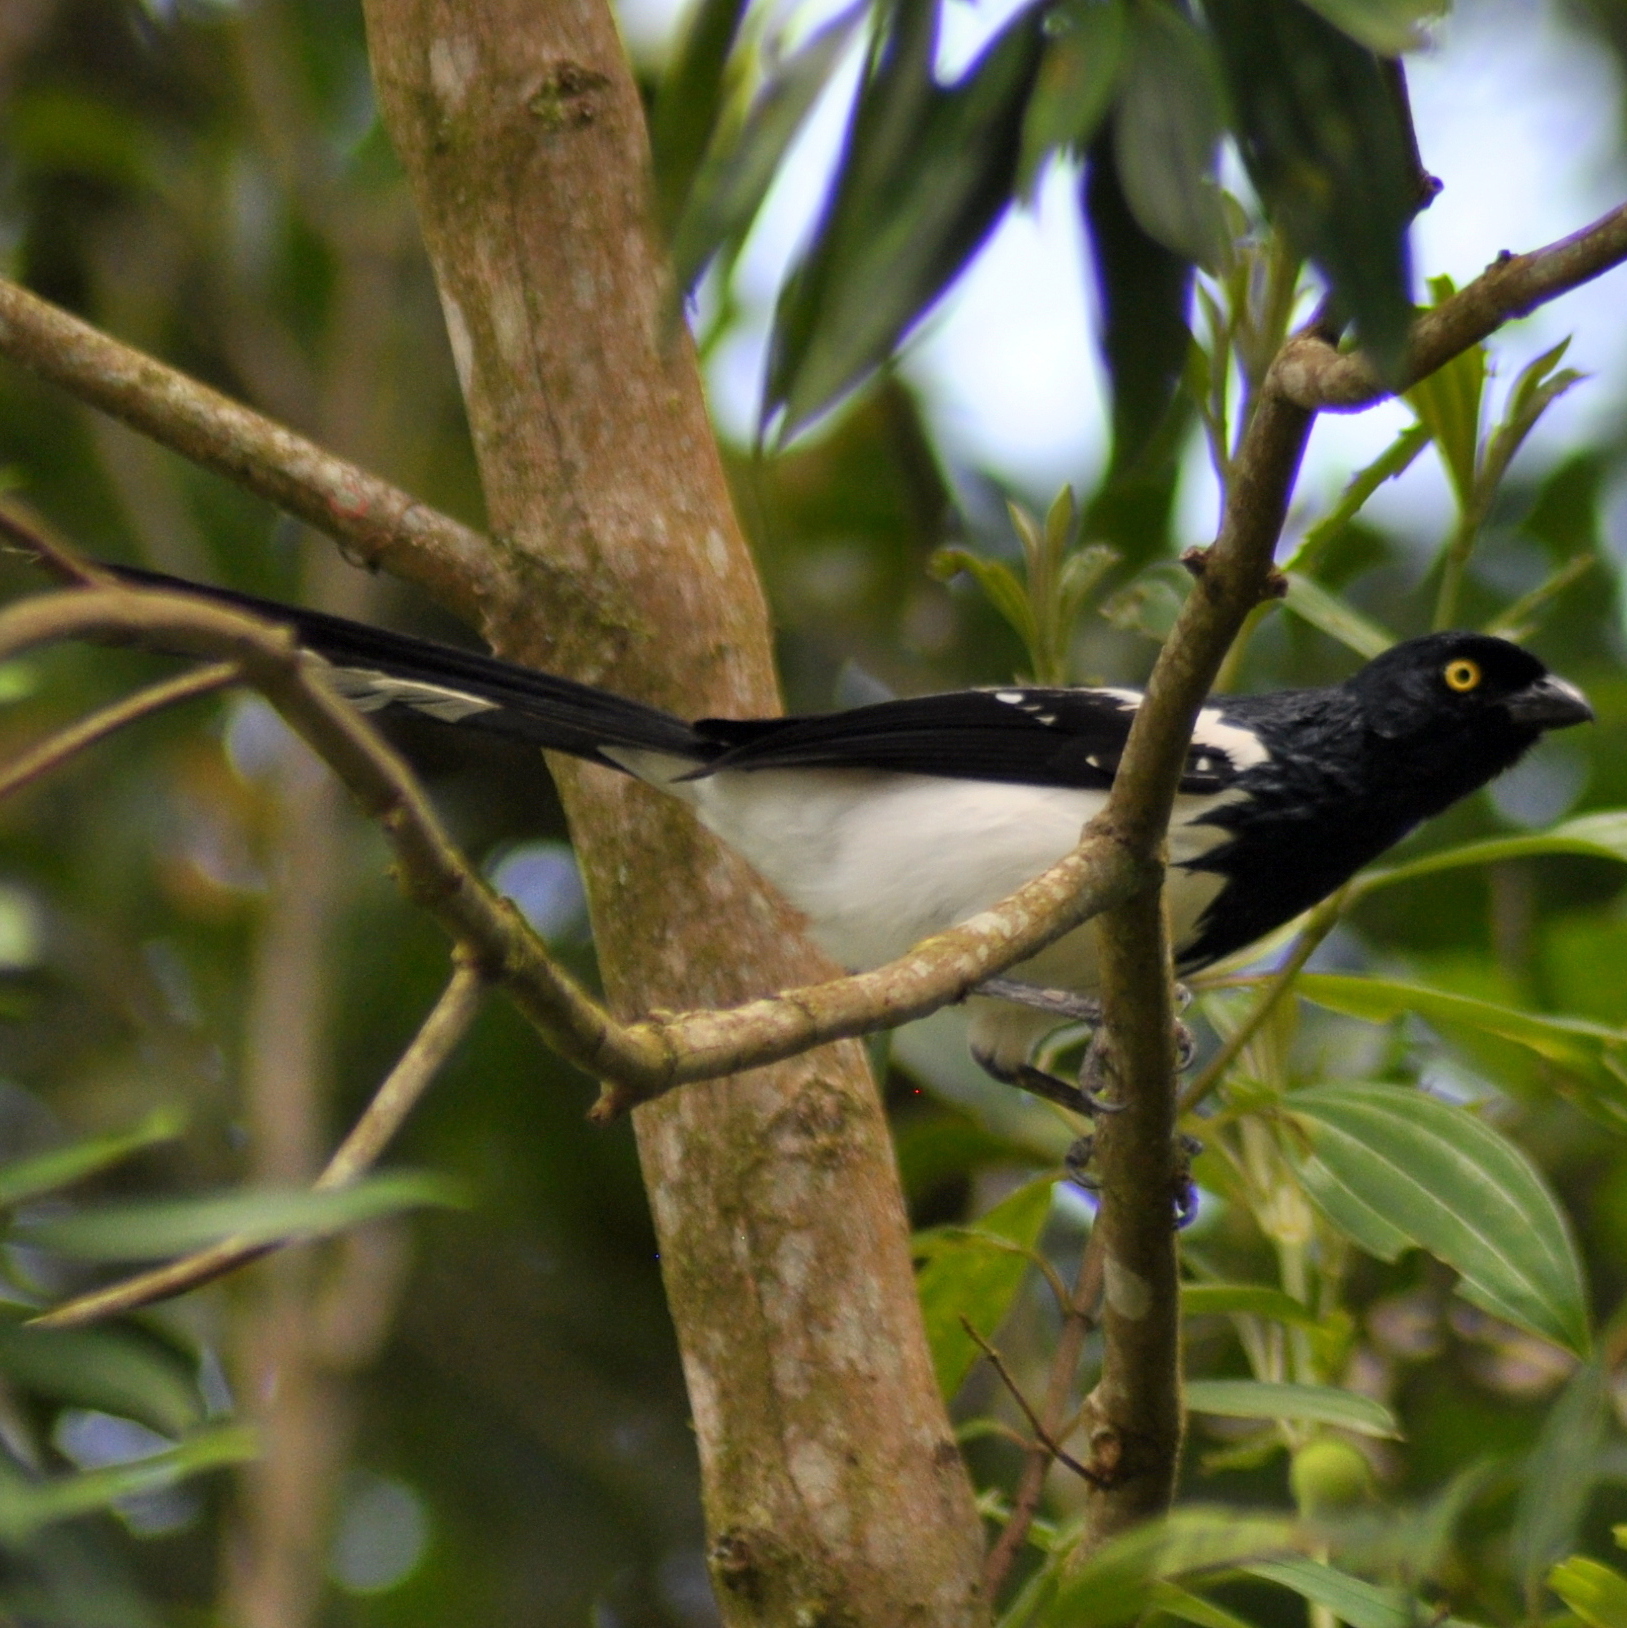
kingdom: Animalia
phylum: Chordata
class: Aves
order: Passeriformes
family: Thraupidae
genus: Cissopis
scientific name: Cissopis leverianus
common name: Magpie tanager
